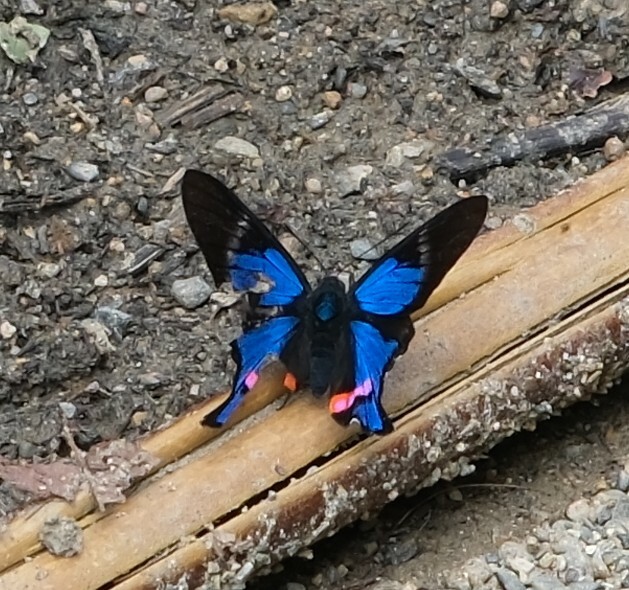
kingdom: Animalia
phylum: Arthropoda
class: Insecta
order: Lepidoptera
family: Riodinidae
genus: Rhetus
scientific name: Rhetus periander
